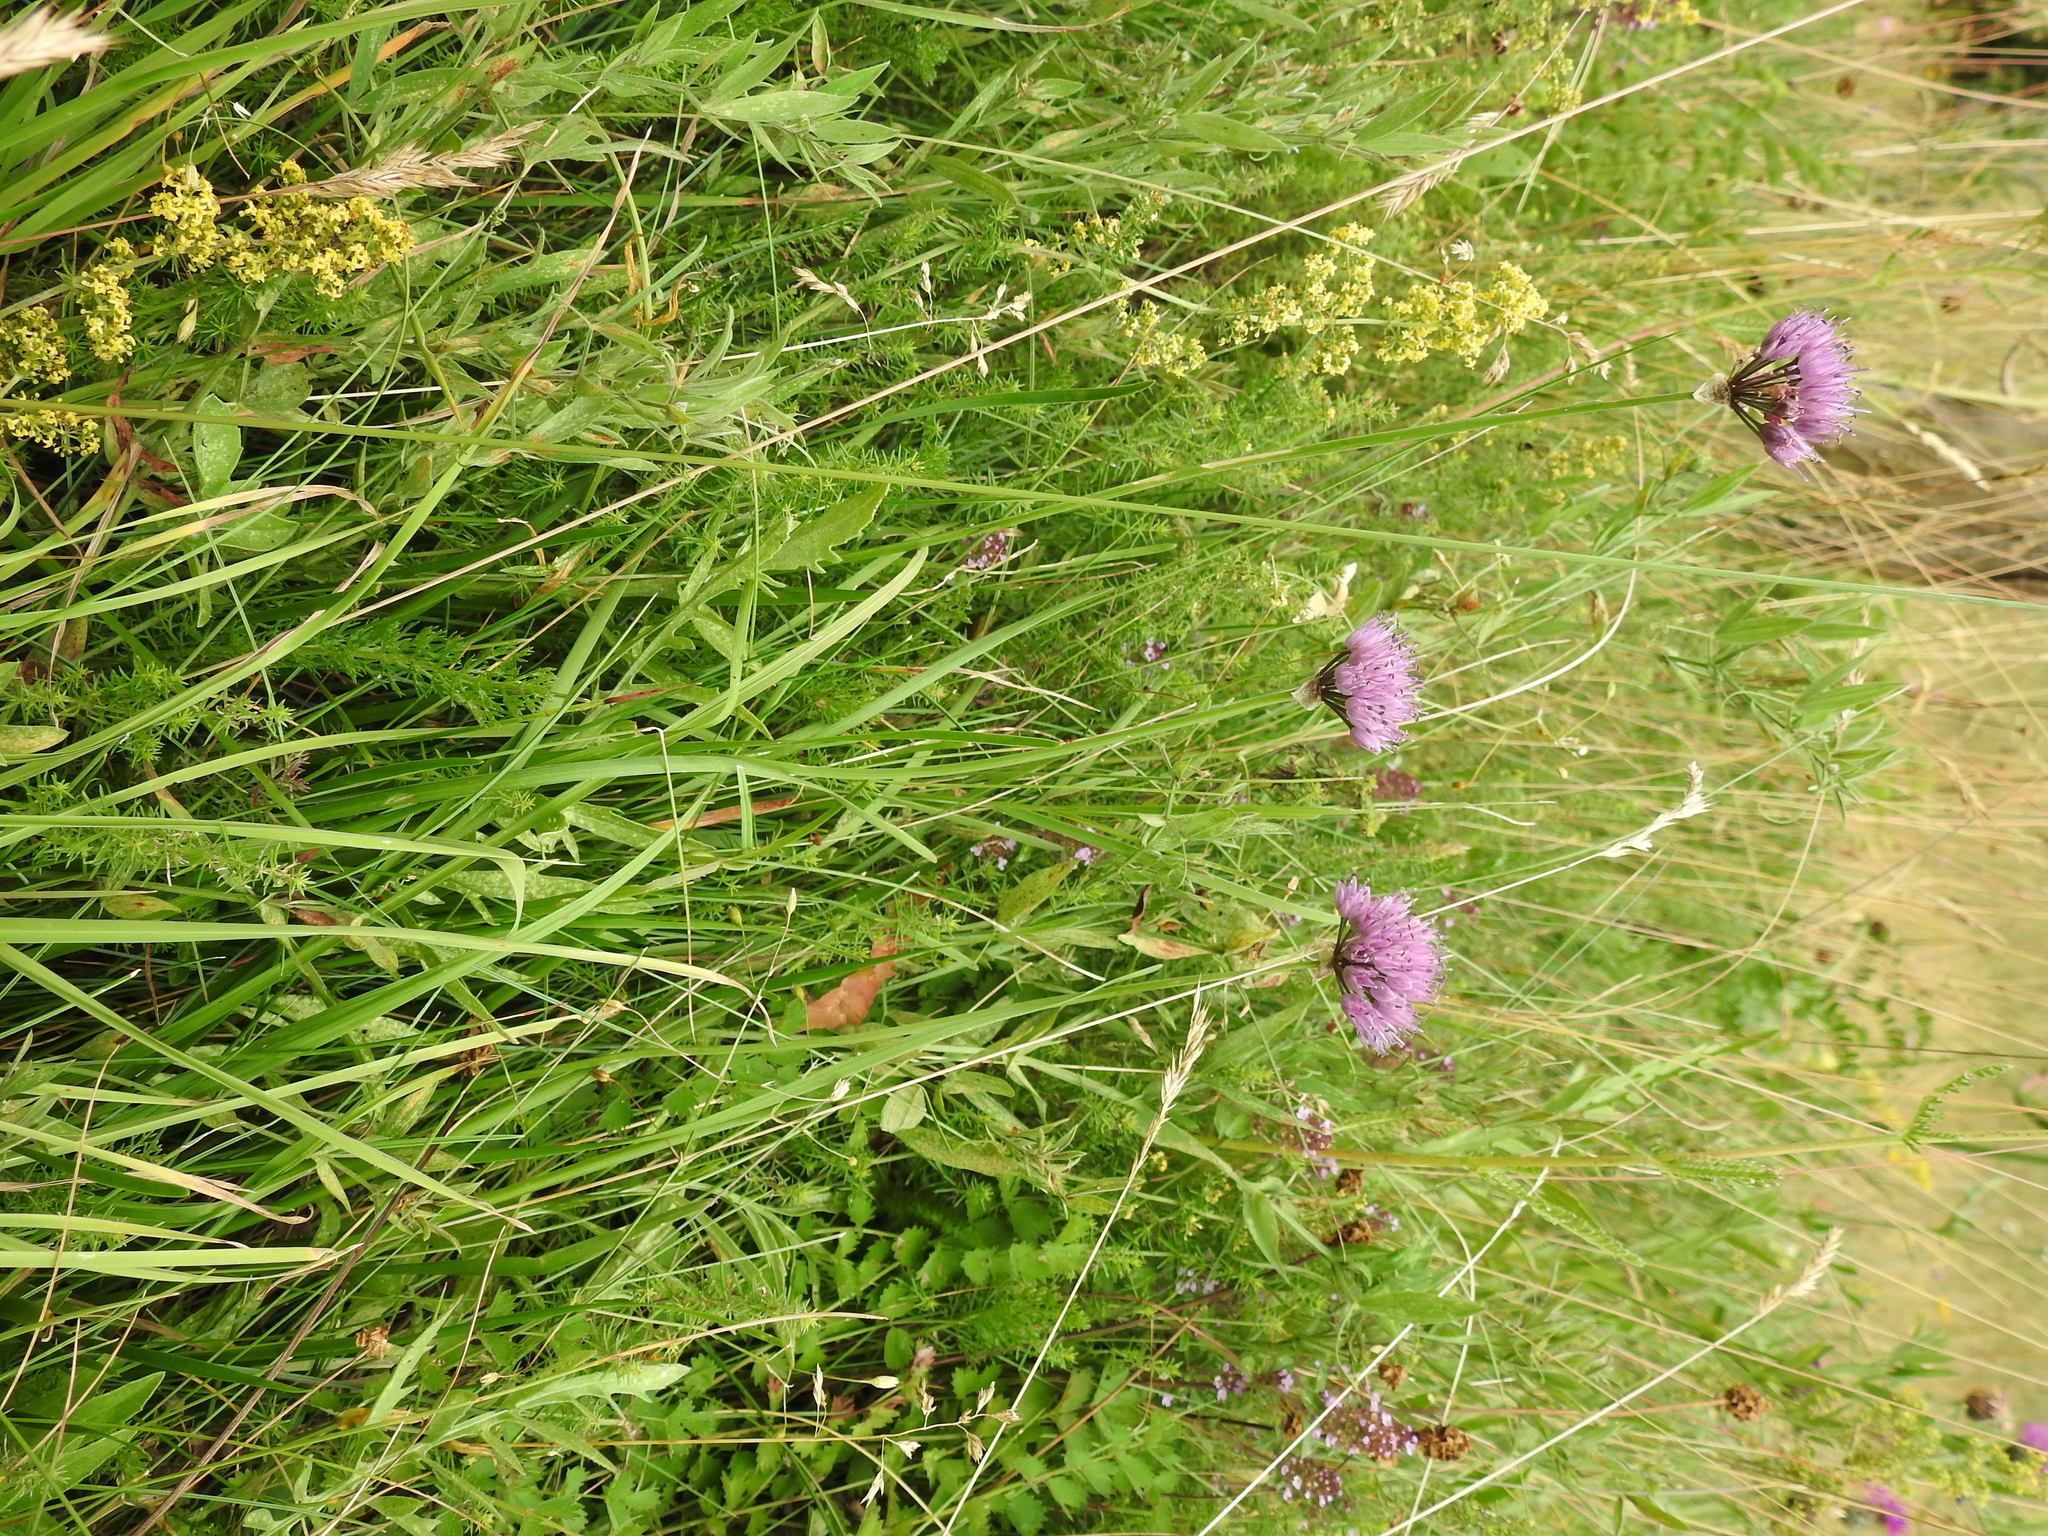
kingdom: Plantae
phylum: Tracheophyta
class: Liliopsida
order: Asparagales
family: Amaryllidaceae
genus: Allium
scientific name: Allium lusitanicum
